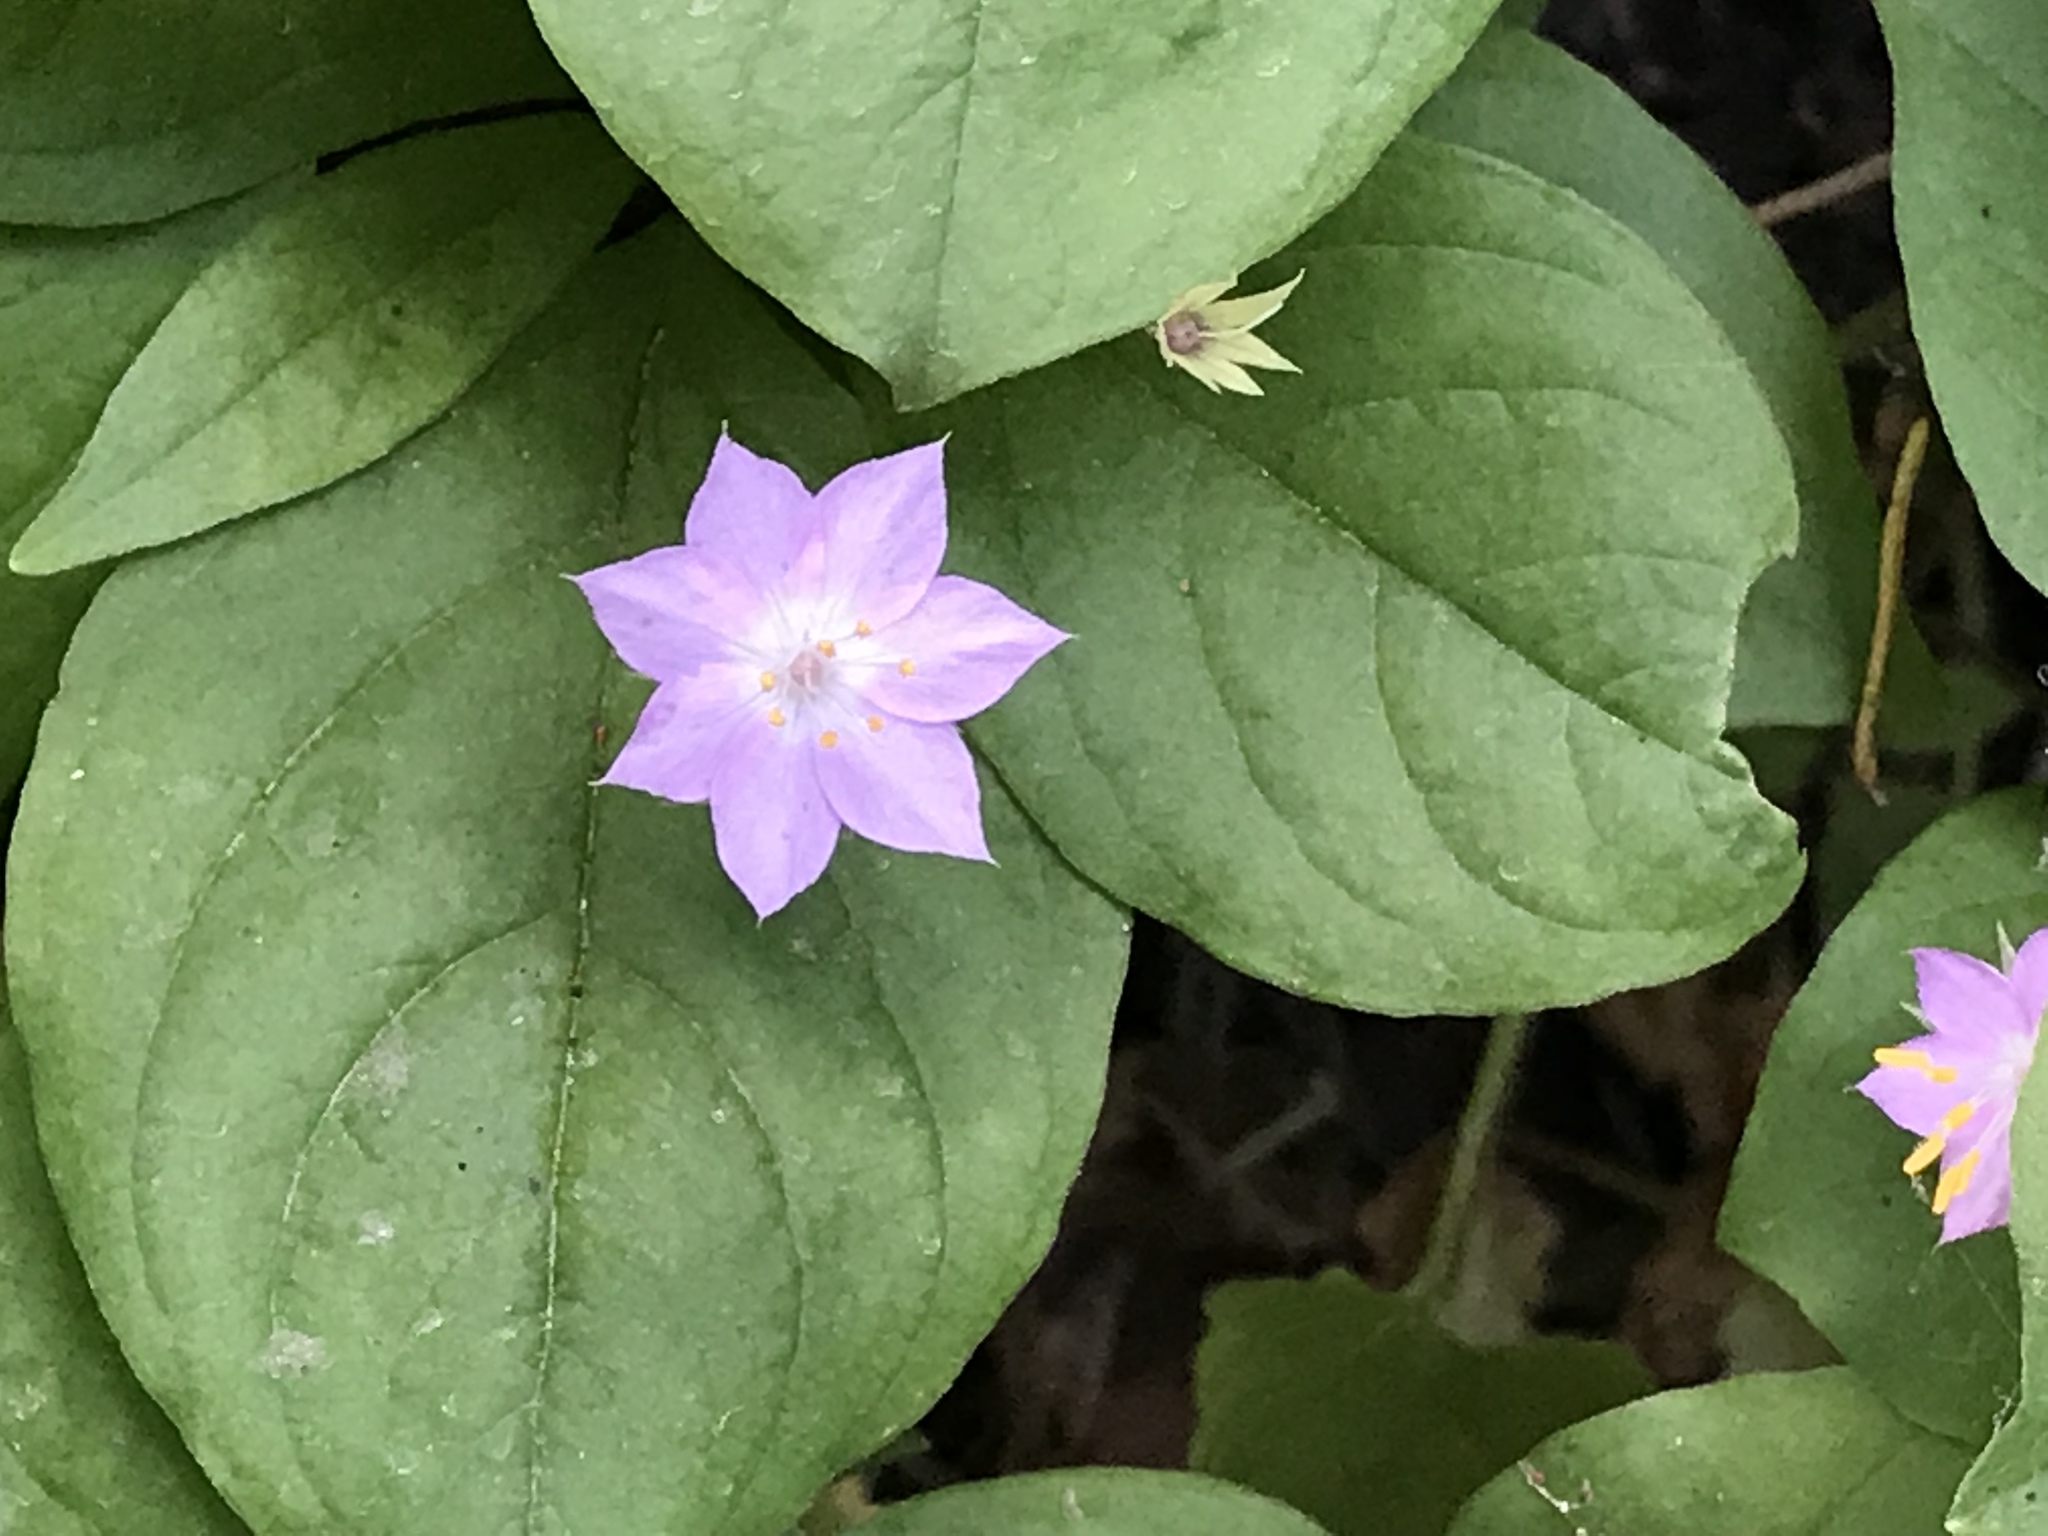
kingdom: Plantae
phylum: Tracheophyta
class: Magnoliopsida
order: Ericales
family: Primulaceae
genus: Lysimachia
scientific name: Lysimachia latifolia
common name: Pacific starflower
